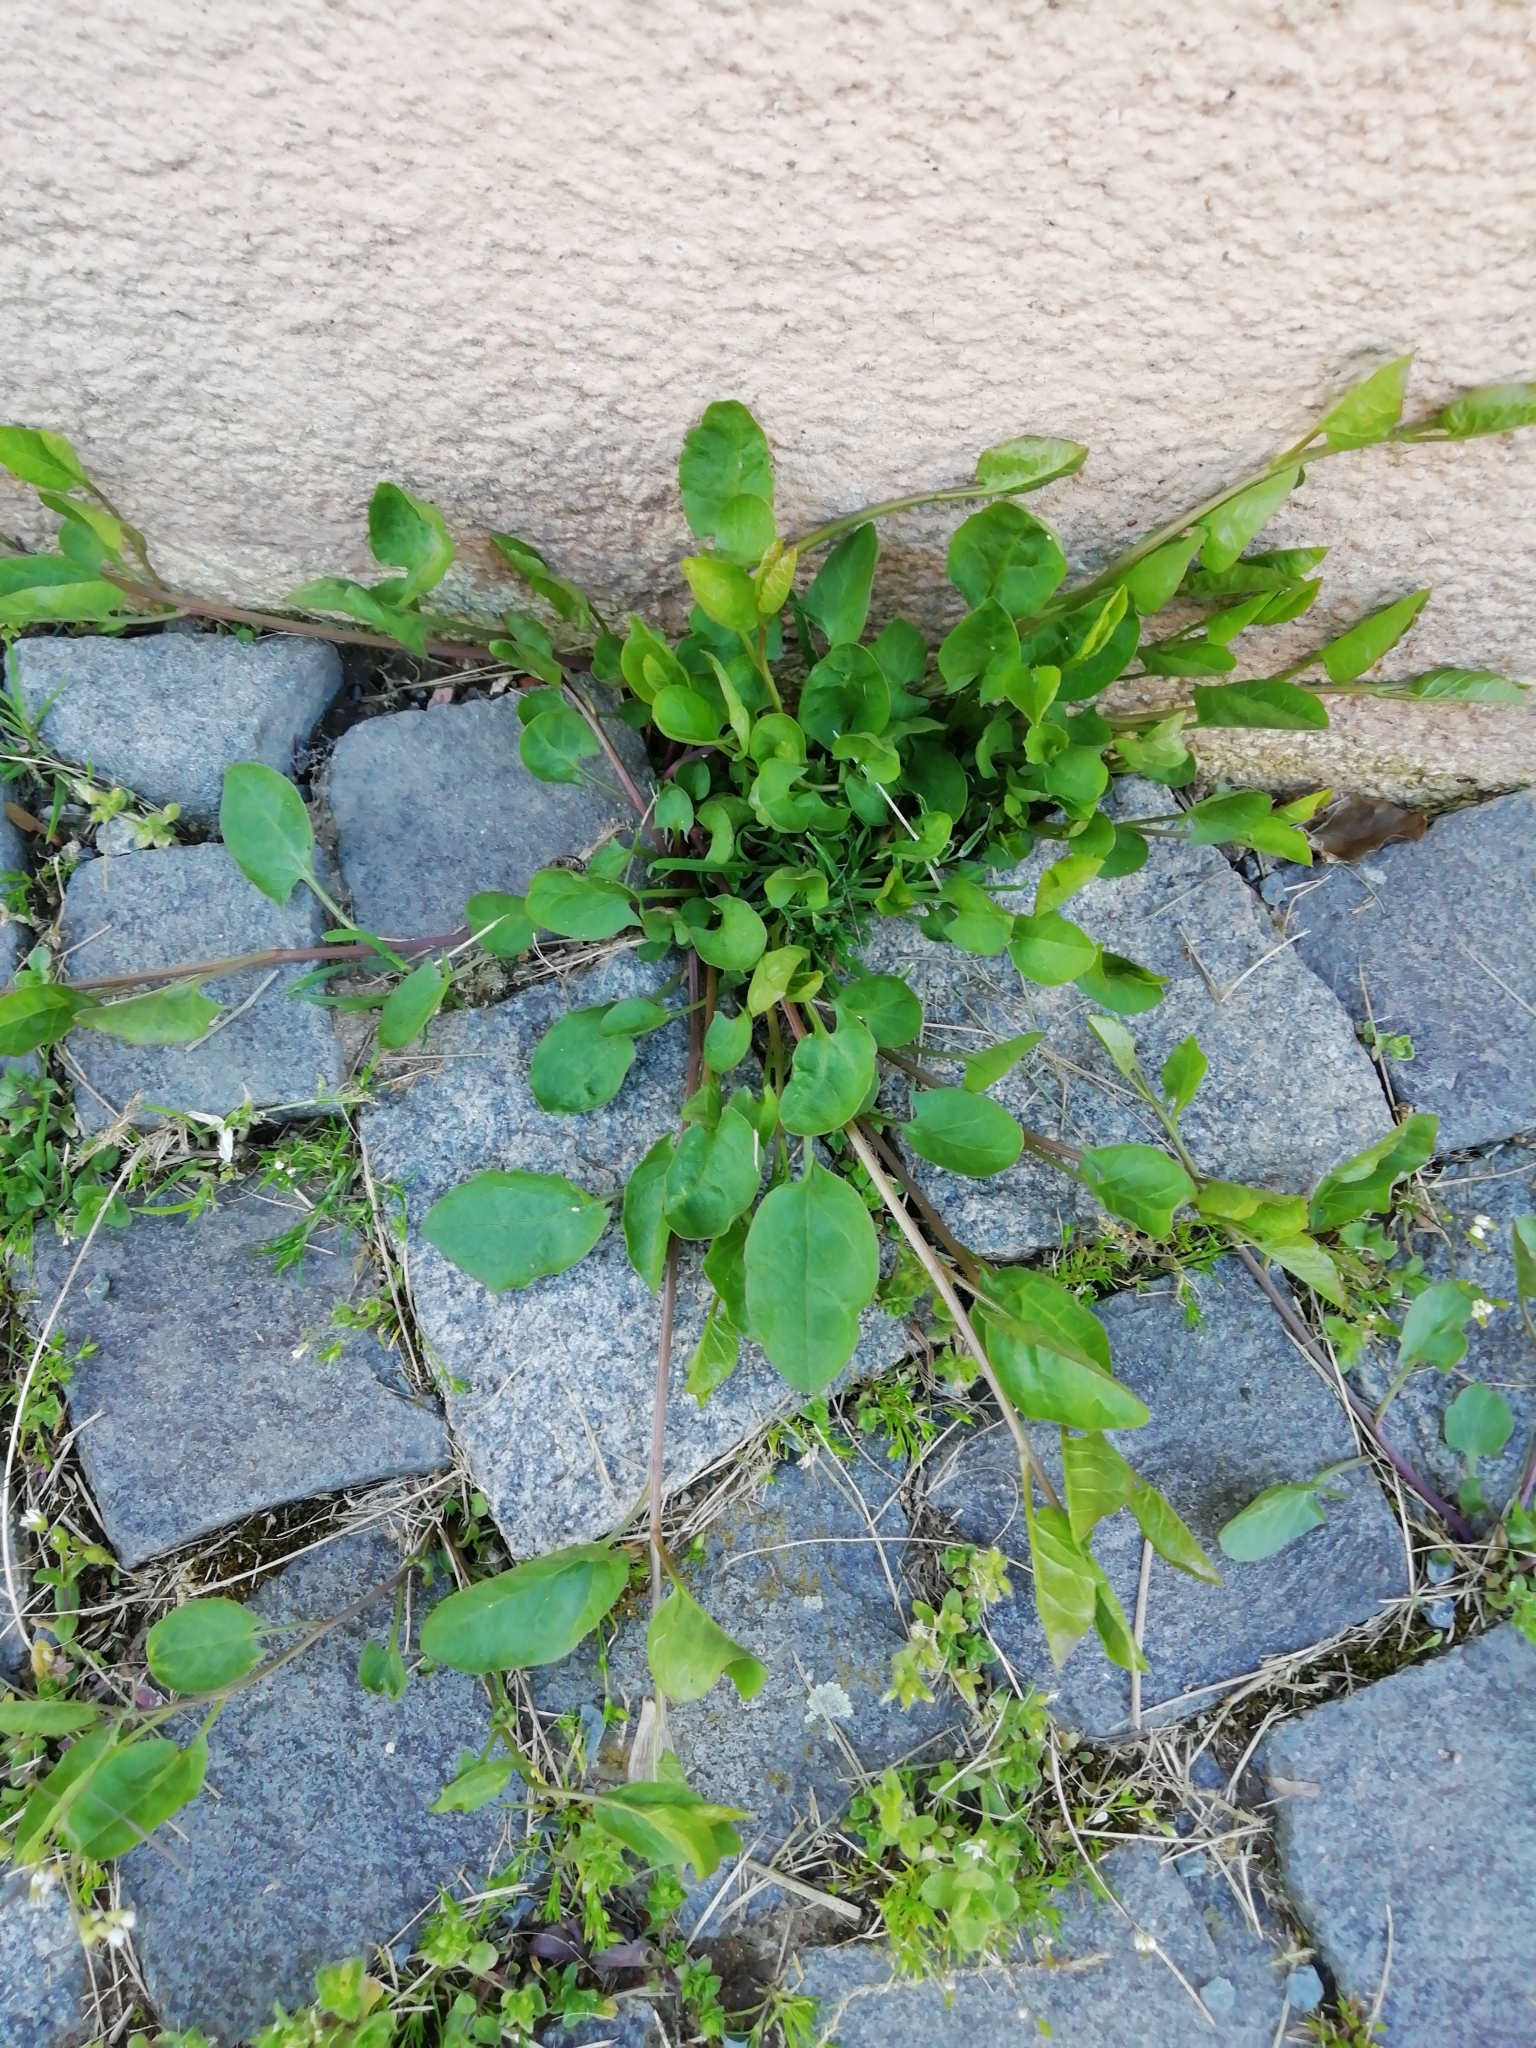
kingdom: Plantae
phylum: Tracheophyta
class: Magnoliopsida
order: Solanales
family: Convolvulaceae
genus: Convolvulus
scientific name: Convolvulus arvensis
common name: Field bindweed
